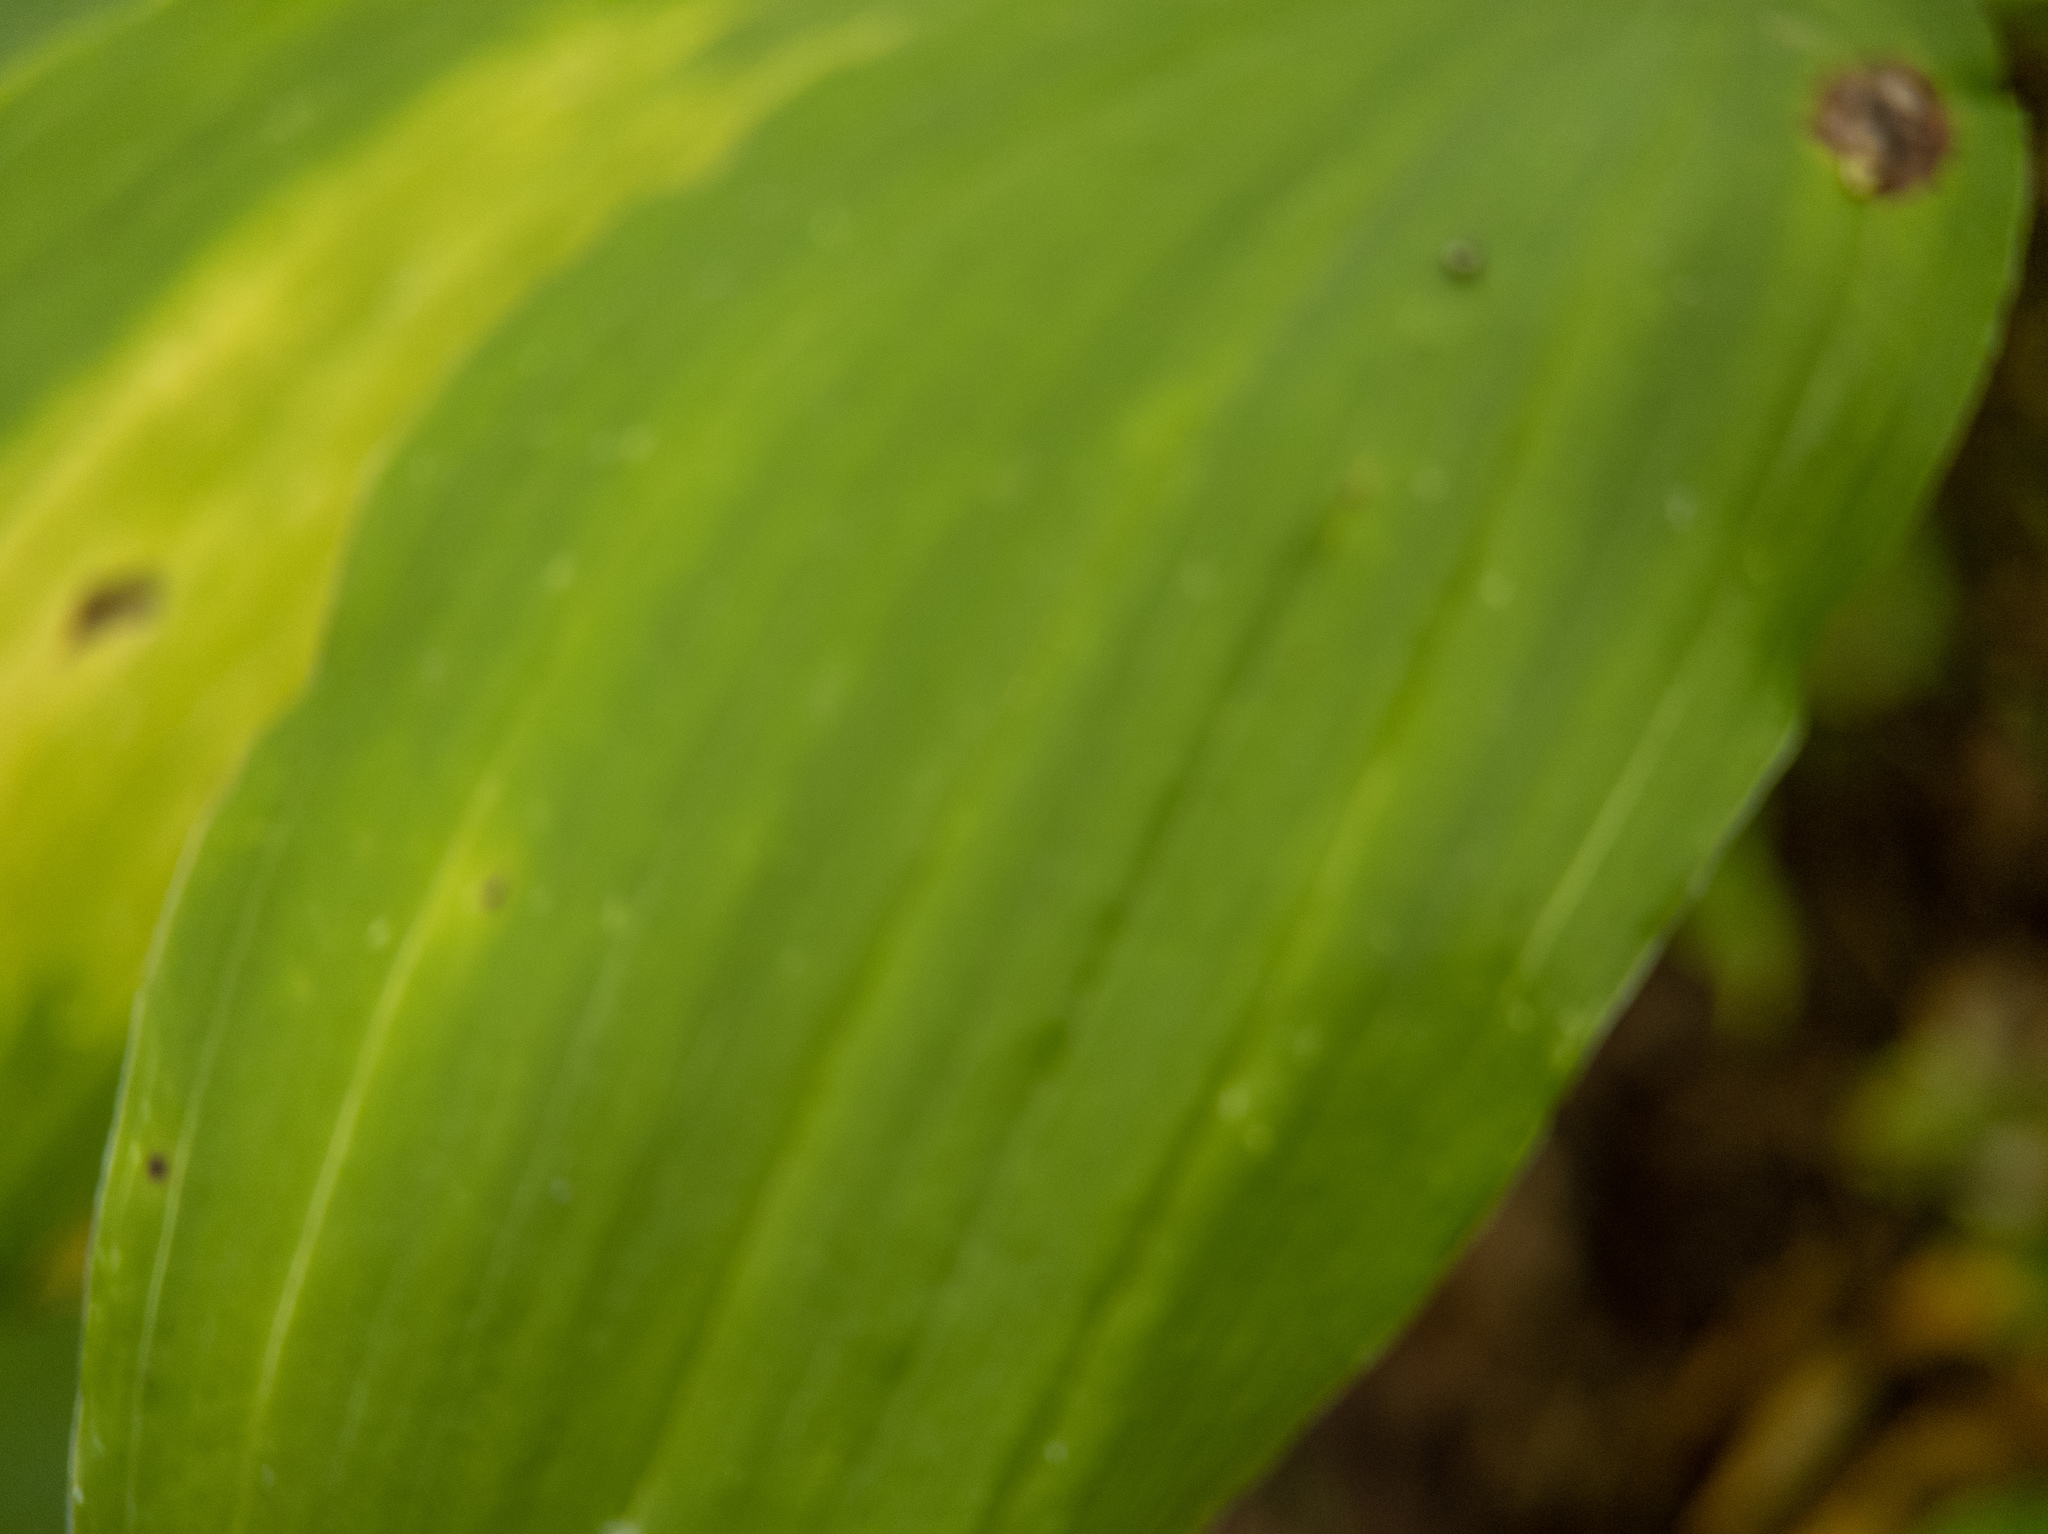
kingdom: Plantae
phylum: Tracheophyta
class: Liliopsida
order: Asparagales
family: Asparagaceae
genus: Maianthemum
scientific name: Maianthemum racemosum
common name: False spikenard
